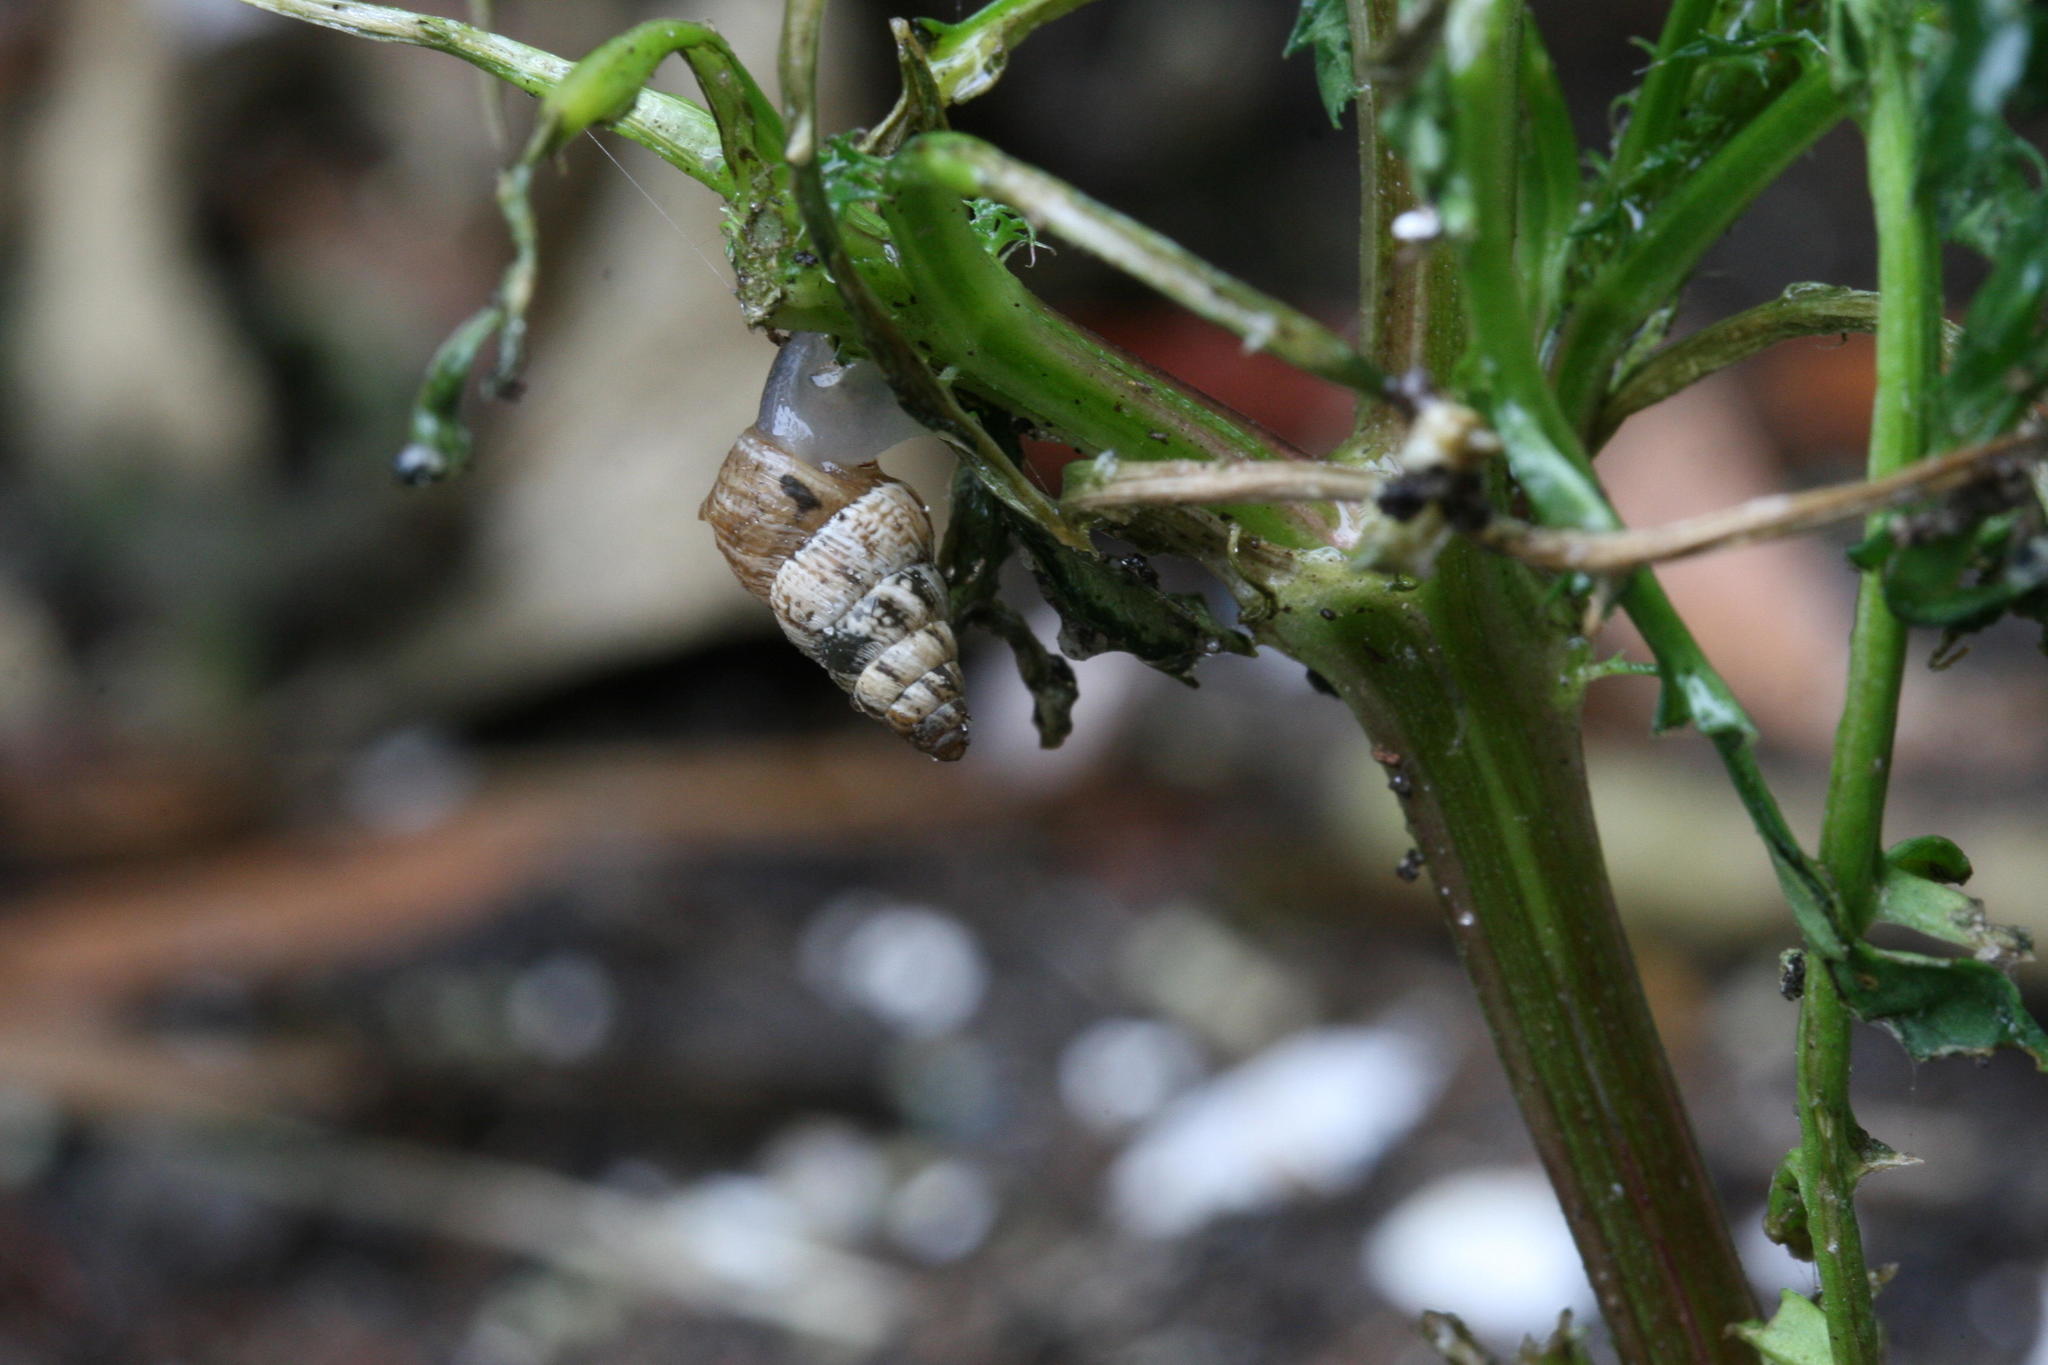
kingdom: Animalia
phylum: Mollusca
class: Gastropoda
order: Stylommatophora
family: Geomitridae
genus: Cochlicella
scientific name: Cochlicella barbara
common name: Potbellied helicellid
